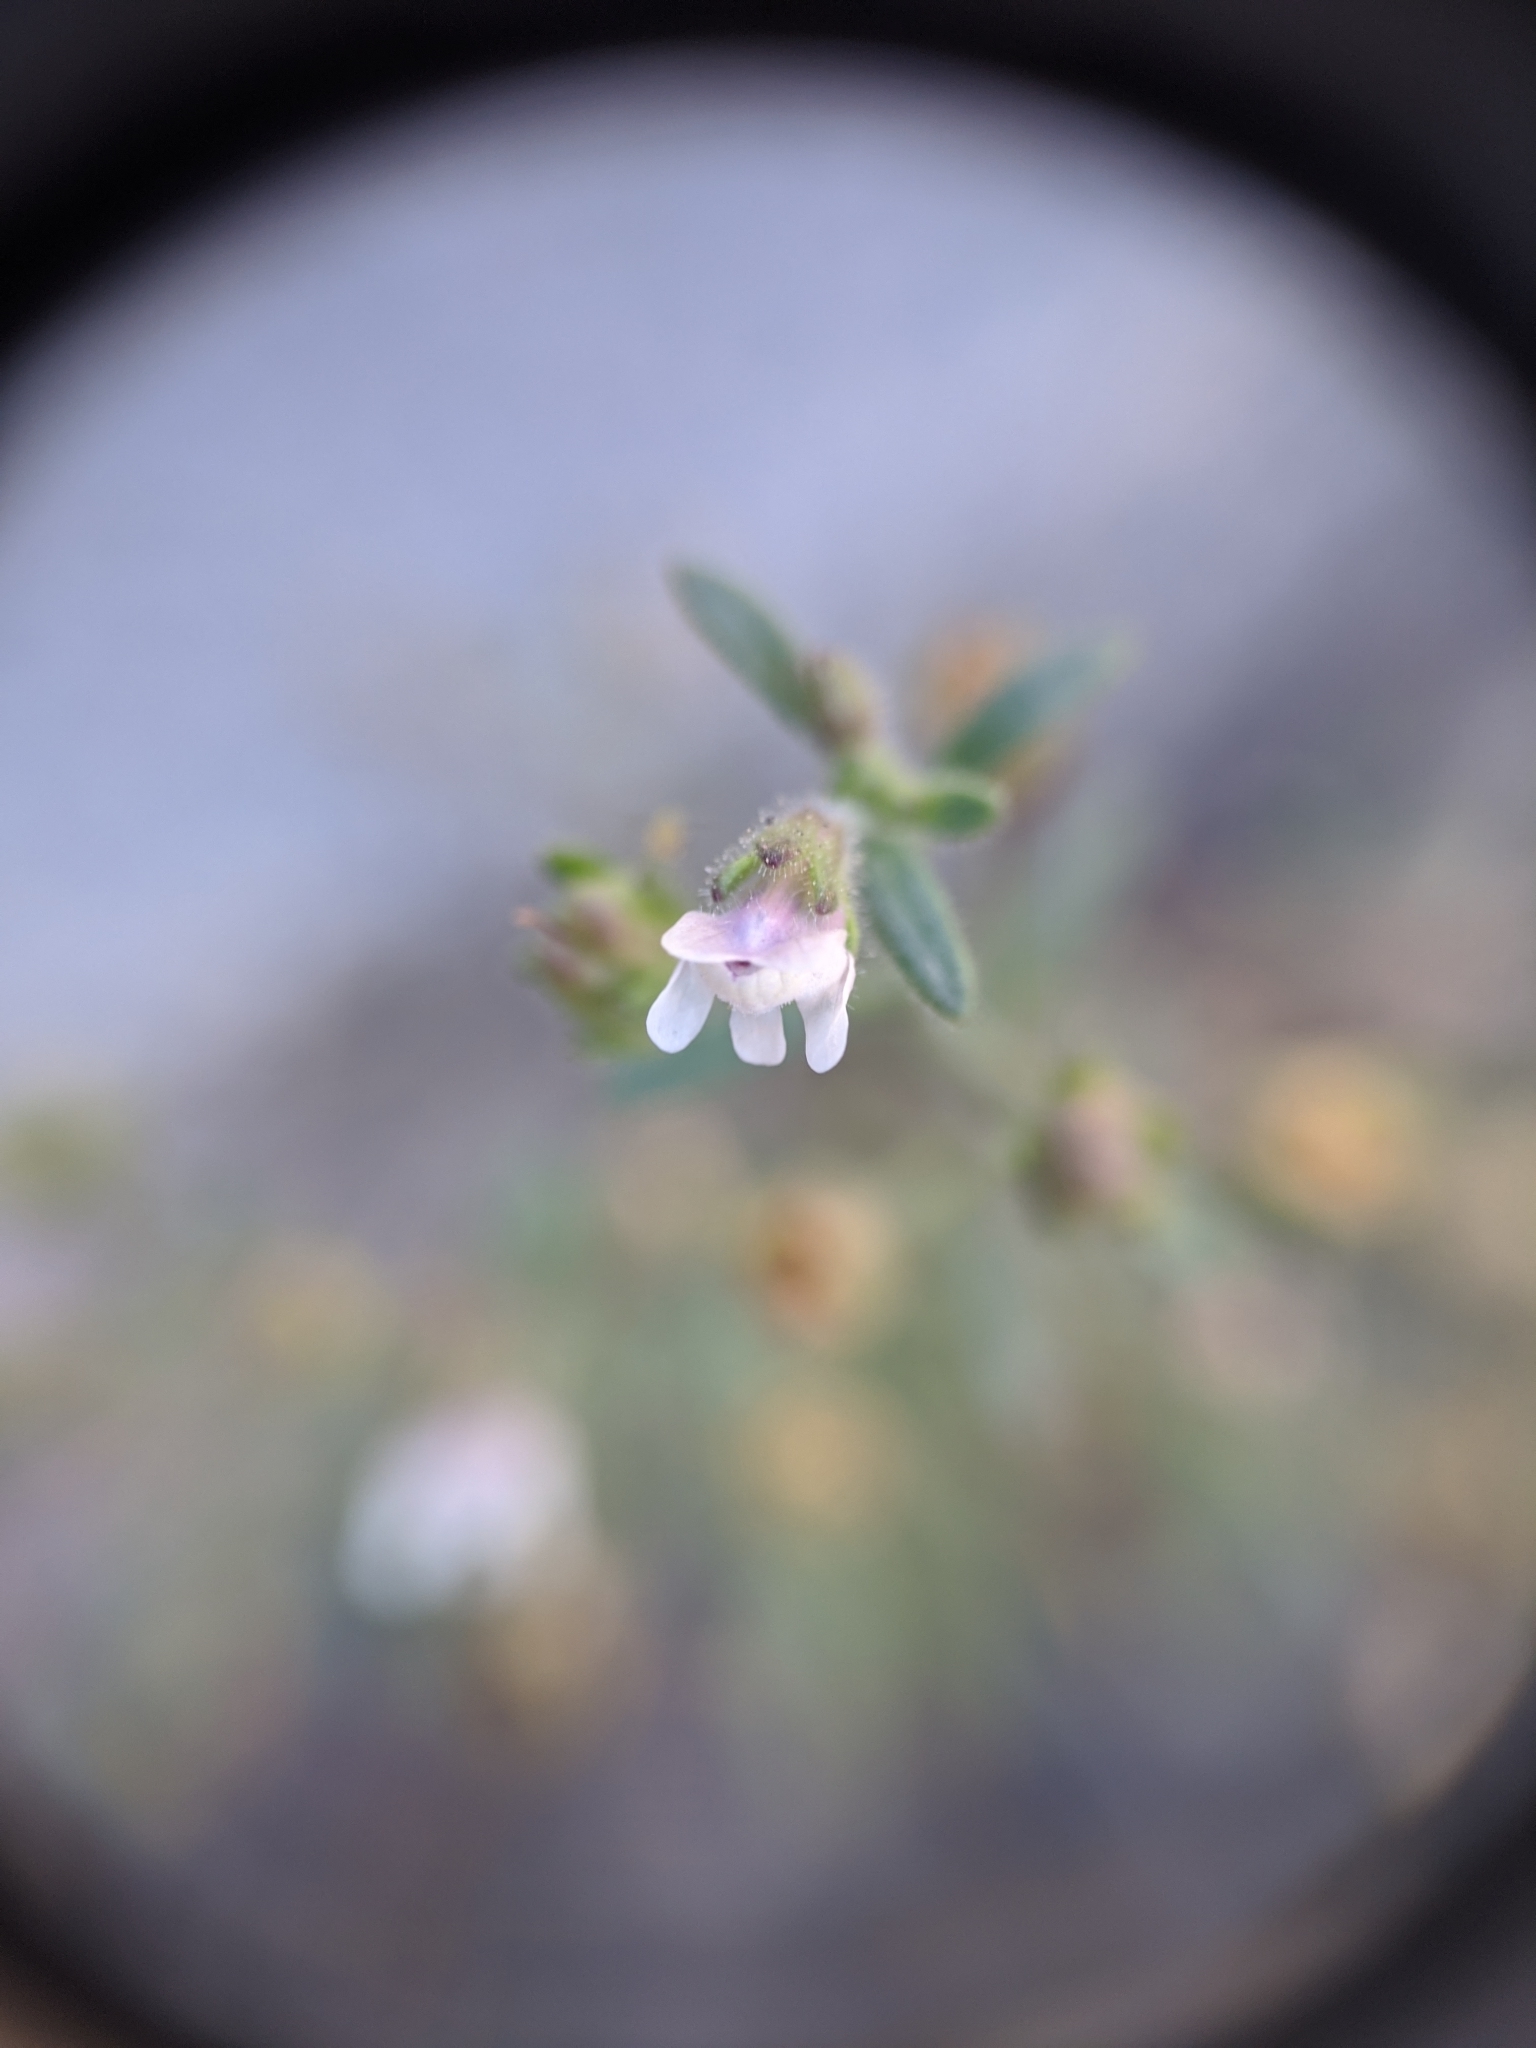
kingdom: Plantae
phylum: Tracheophyta
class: Magnoliopsida
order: Lamiales
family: Plantaginaceae
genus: Chaenorhinum
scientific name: Chaenorhinum minus
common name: Dwarf snapdragon
